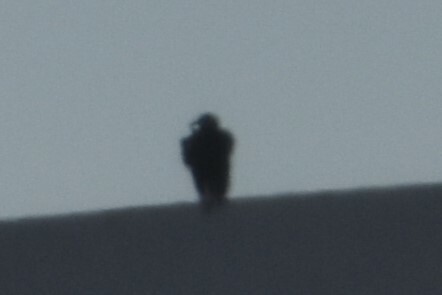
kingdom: Animalia
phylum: Chordata
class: Aves
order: Accipitriformes
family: Cathartidae
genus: Coragyps
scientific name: Coragyps atratus
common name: Black vulture
